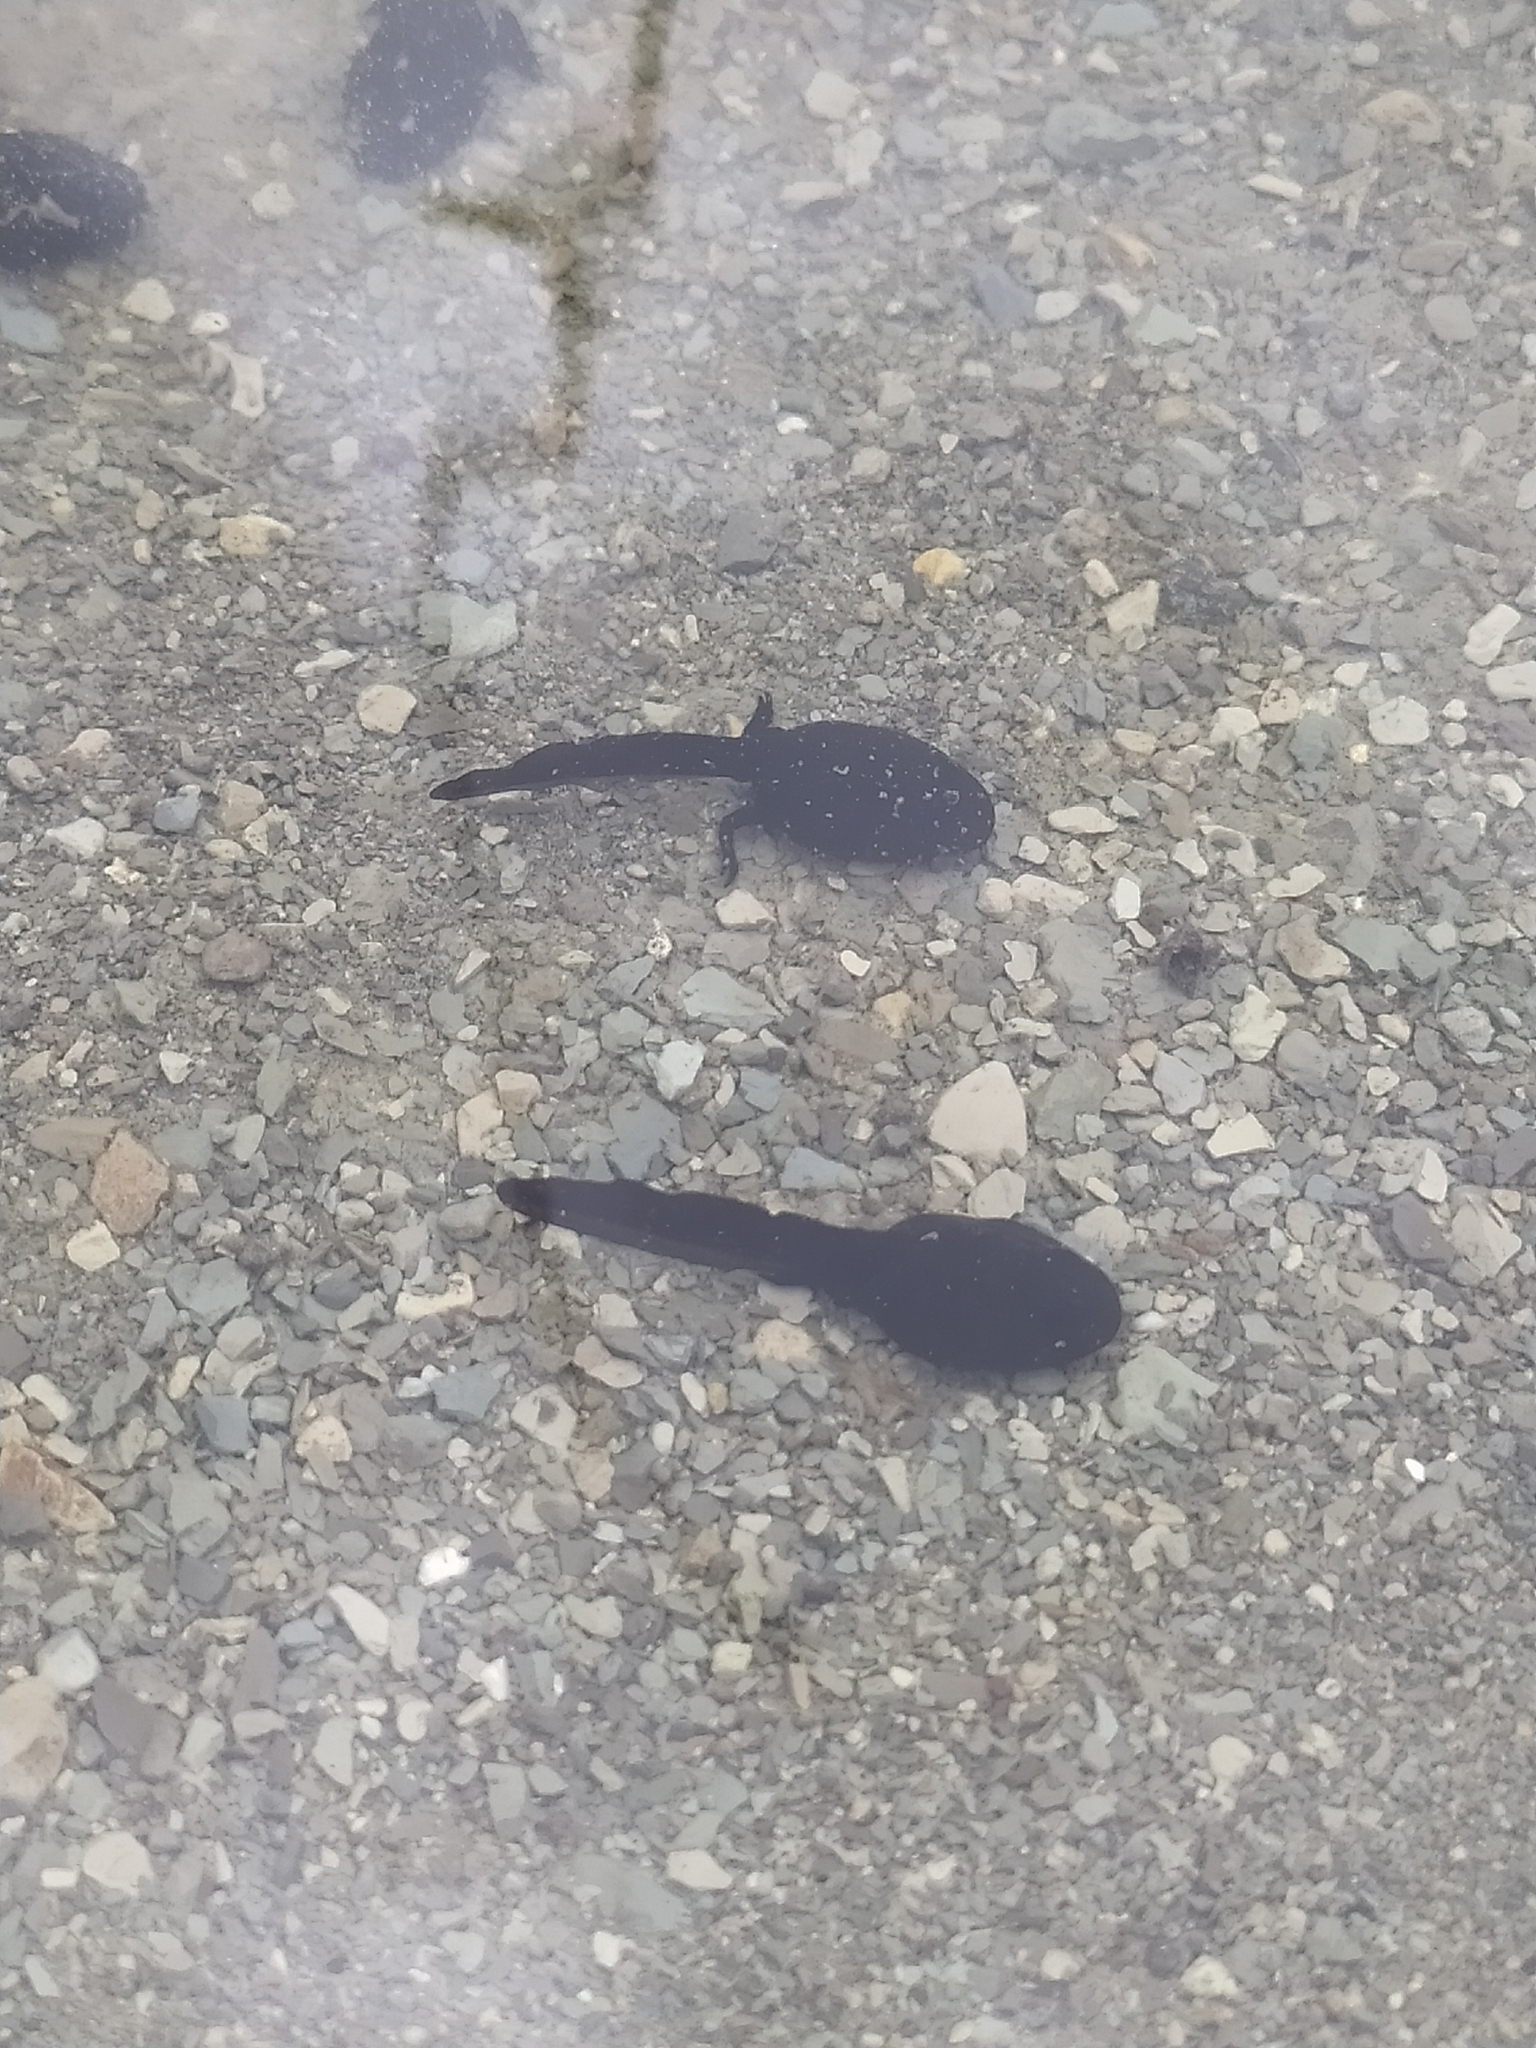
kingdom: Animalia
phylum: Chordata
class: Amphibia
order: Anura
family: Bufonidae
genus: Bufo
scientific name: Bufo bufo
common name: Common toad
